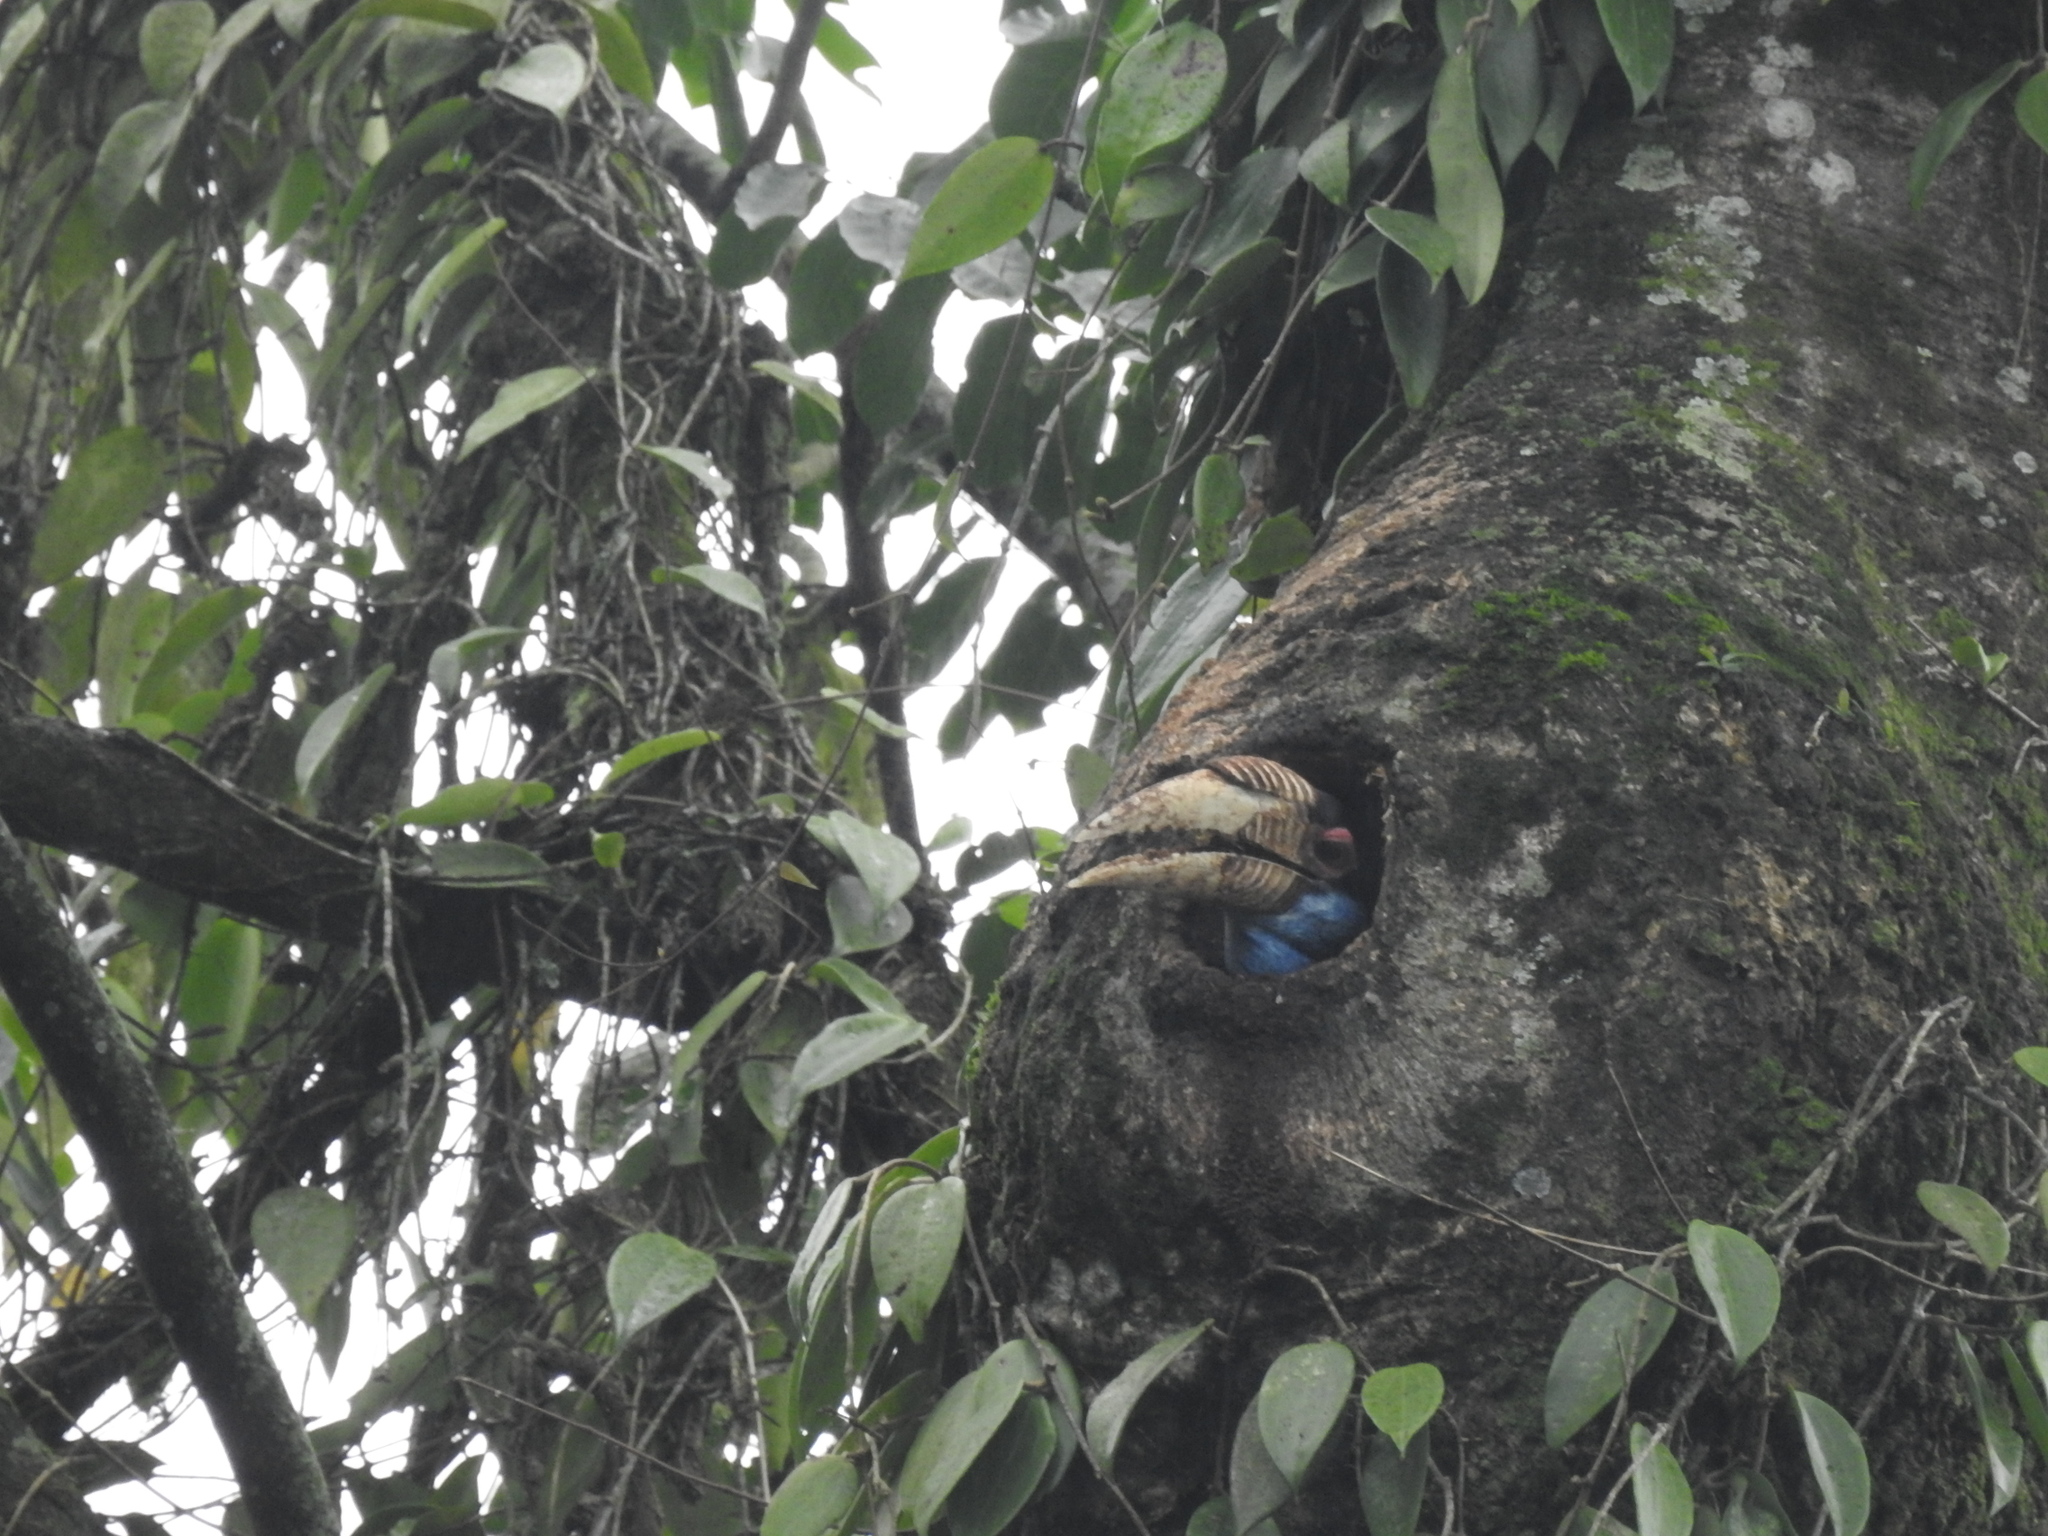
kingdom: Animalia
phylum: Chordata
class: Aves
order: Bucerotiformes
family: Bucerotidae
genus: Rhyticeros
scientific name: Rhyticeros undulatus
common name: Wreathed hornbill
